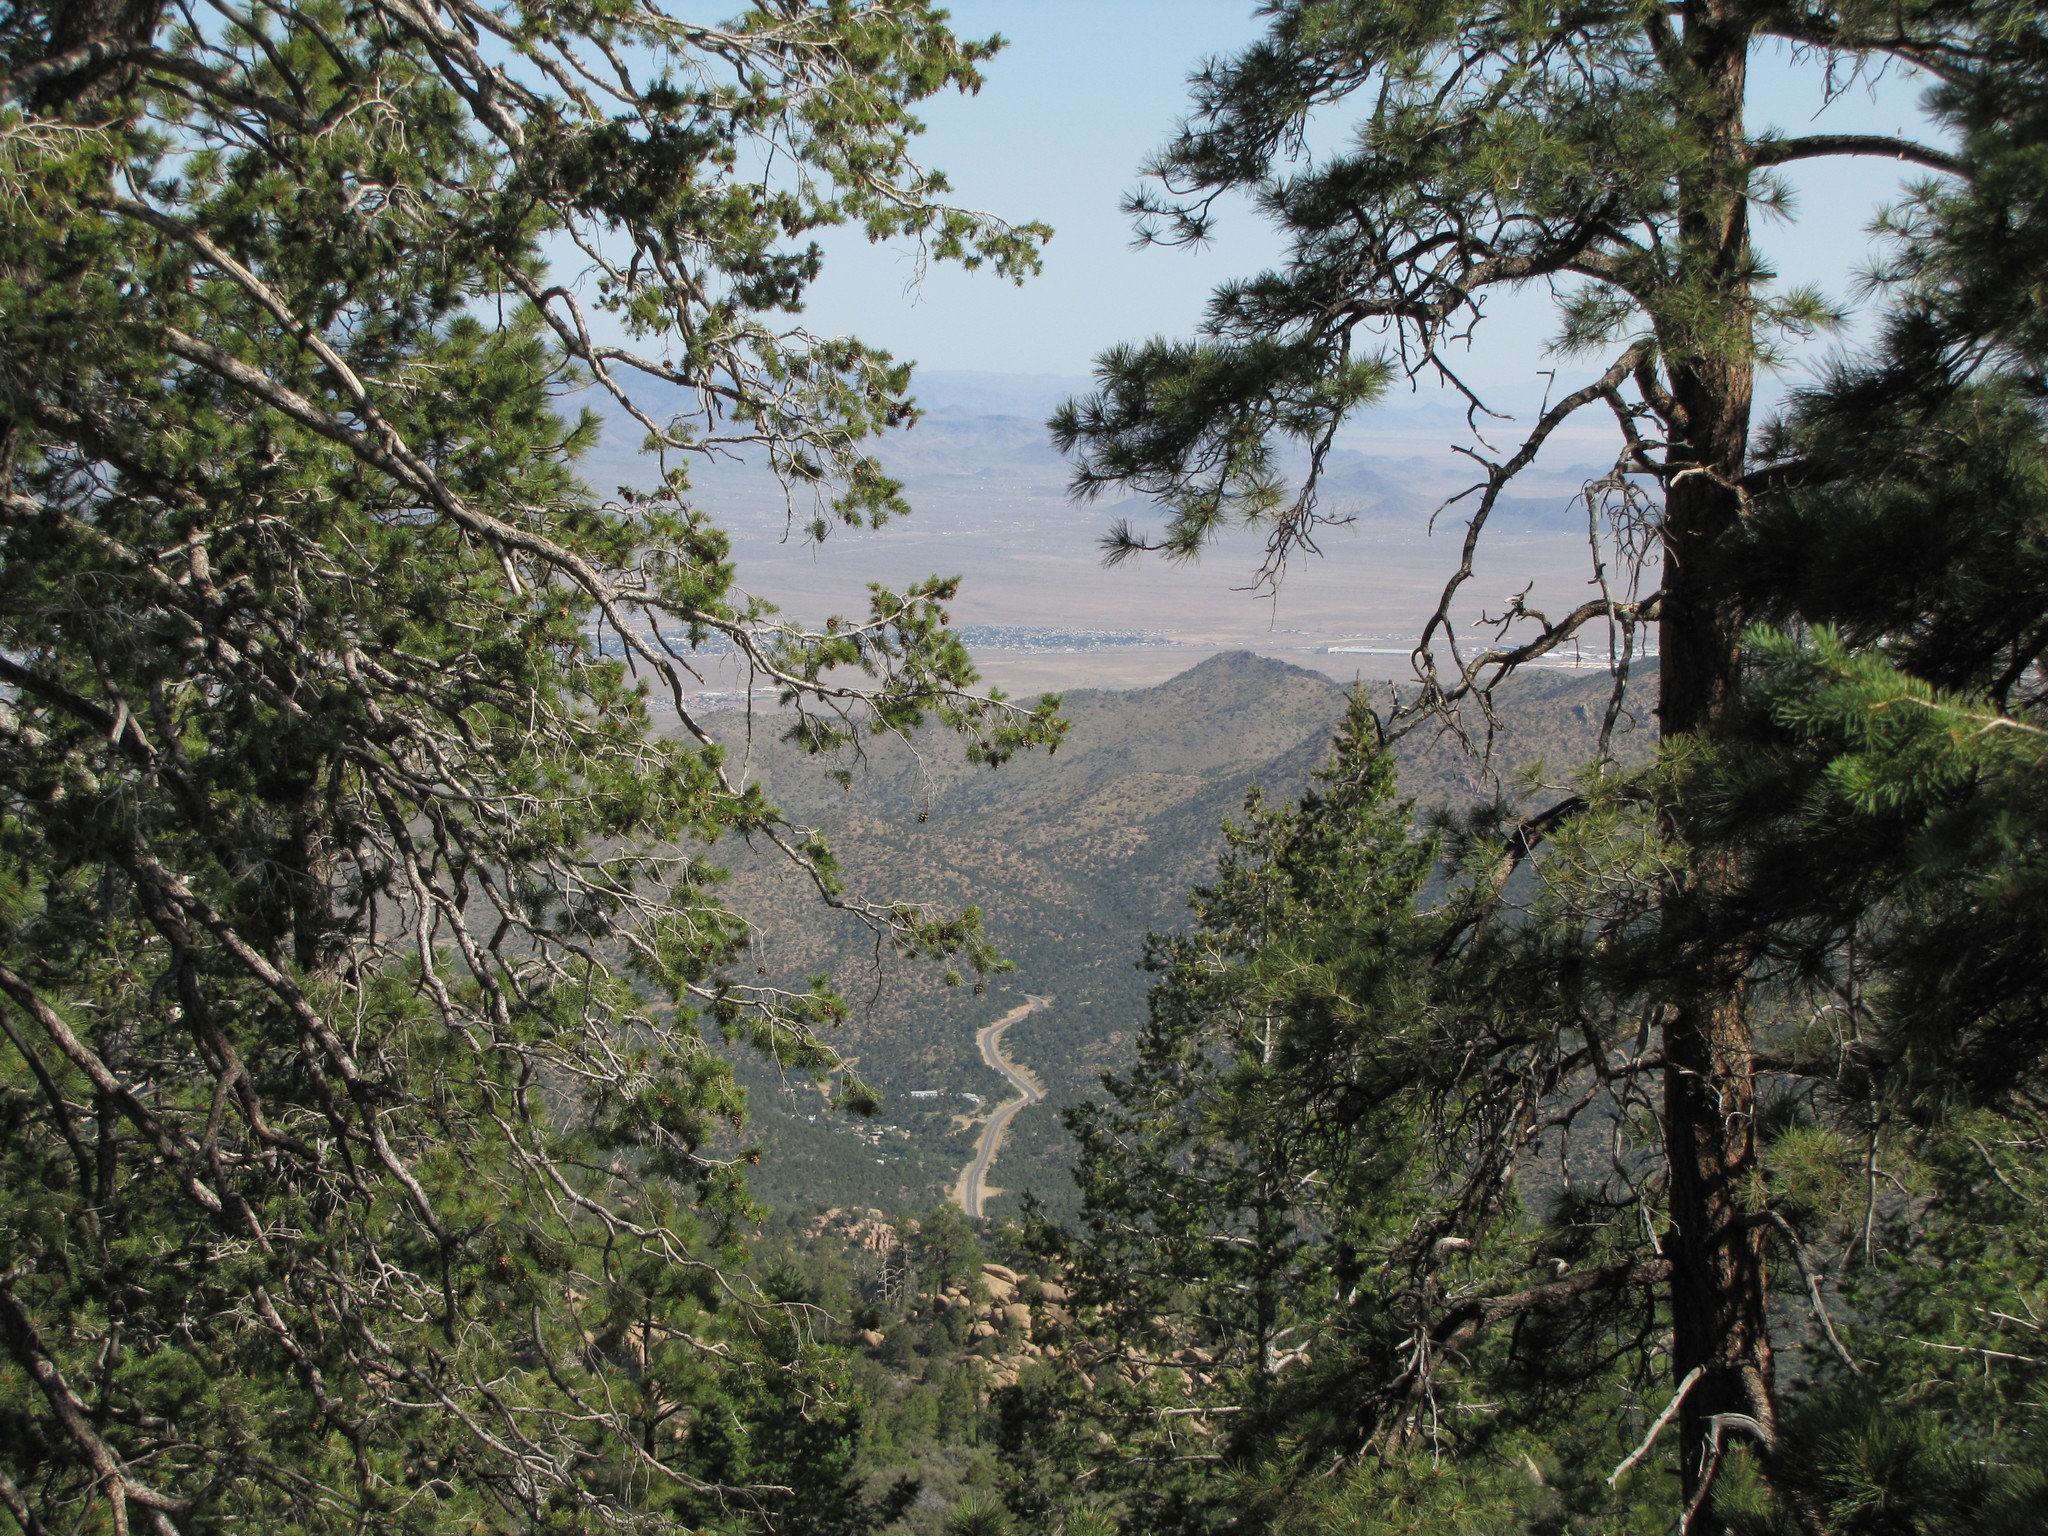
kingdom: Plantae
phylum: Tracheophyta
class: Pinopsida
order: Pinales
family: Pinaceae
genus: Pinus
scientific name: Pinus ponderosa
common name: Western yellow-pine
